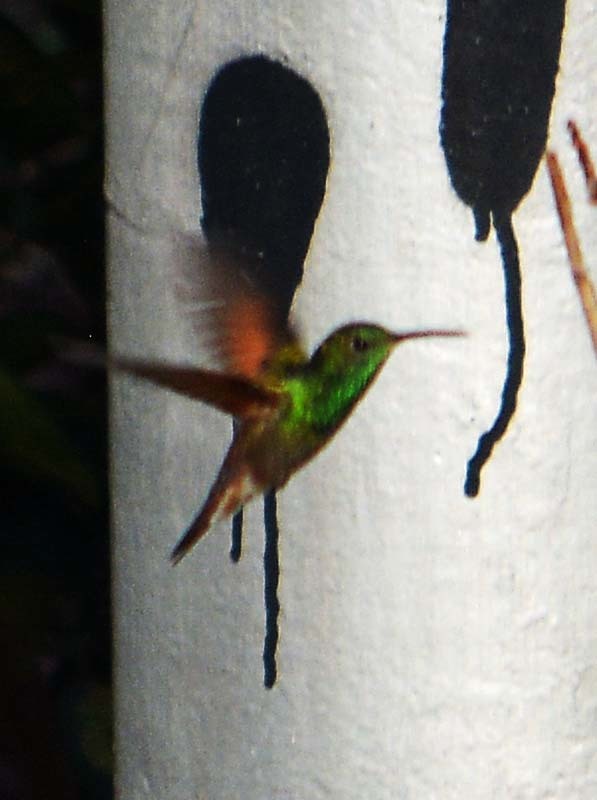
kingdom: Animalia
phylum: Chordata
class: Aves
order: Apodiformes
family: Trochilidae
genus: Saucerottia
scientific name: Saucerottia beryllina
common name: Berylline hummingbird
